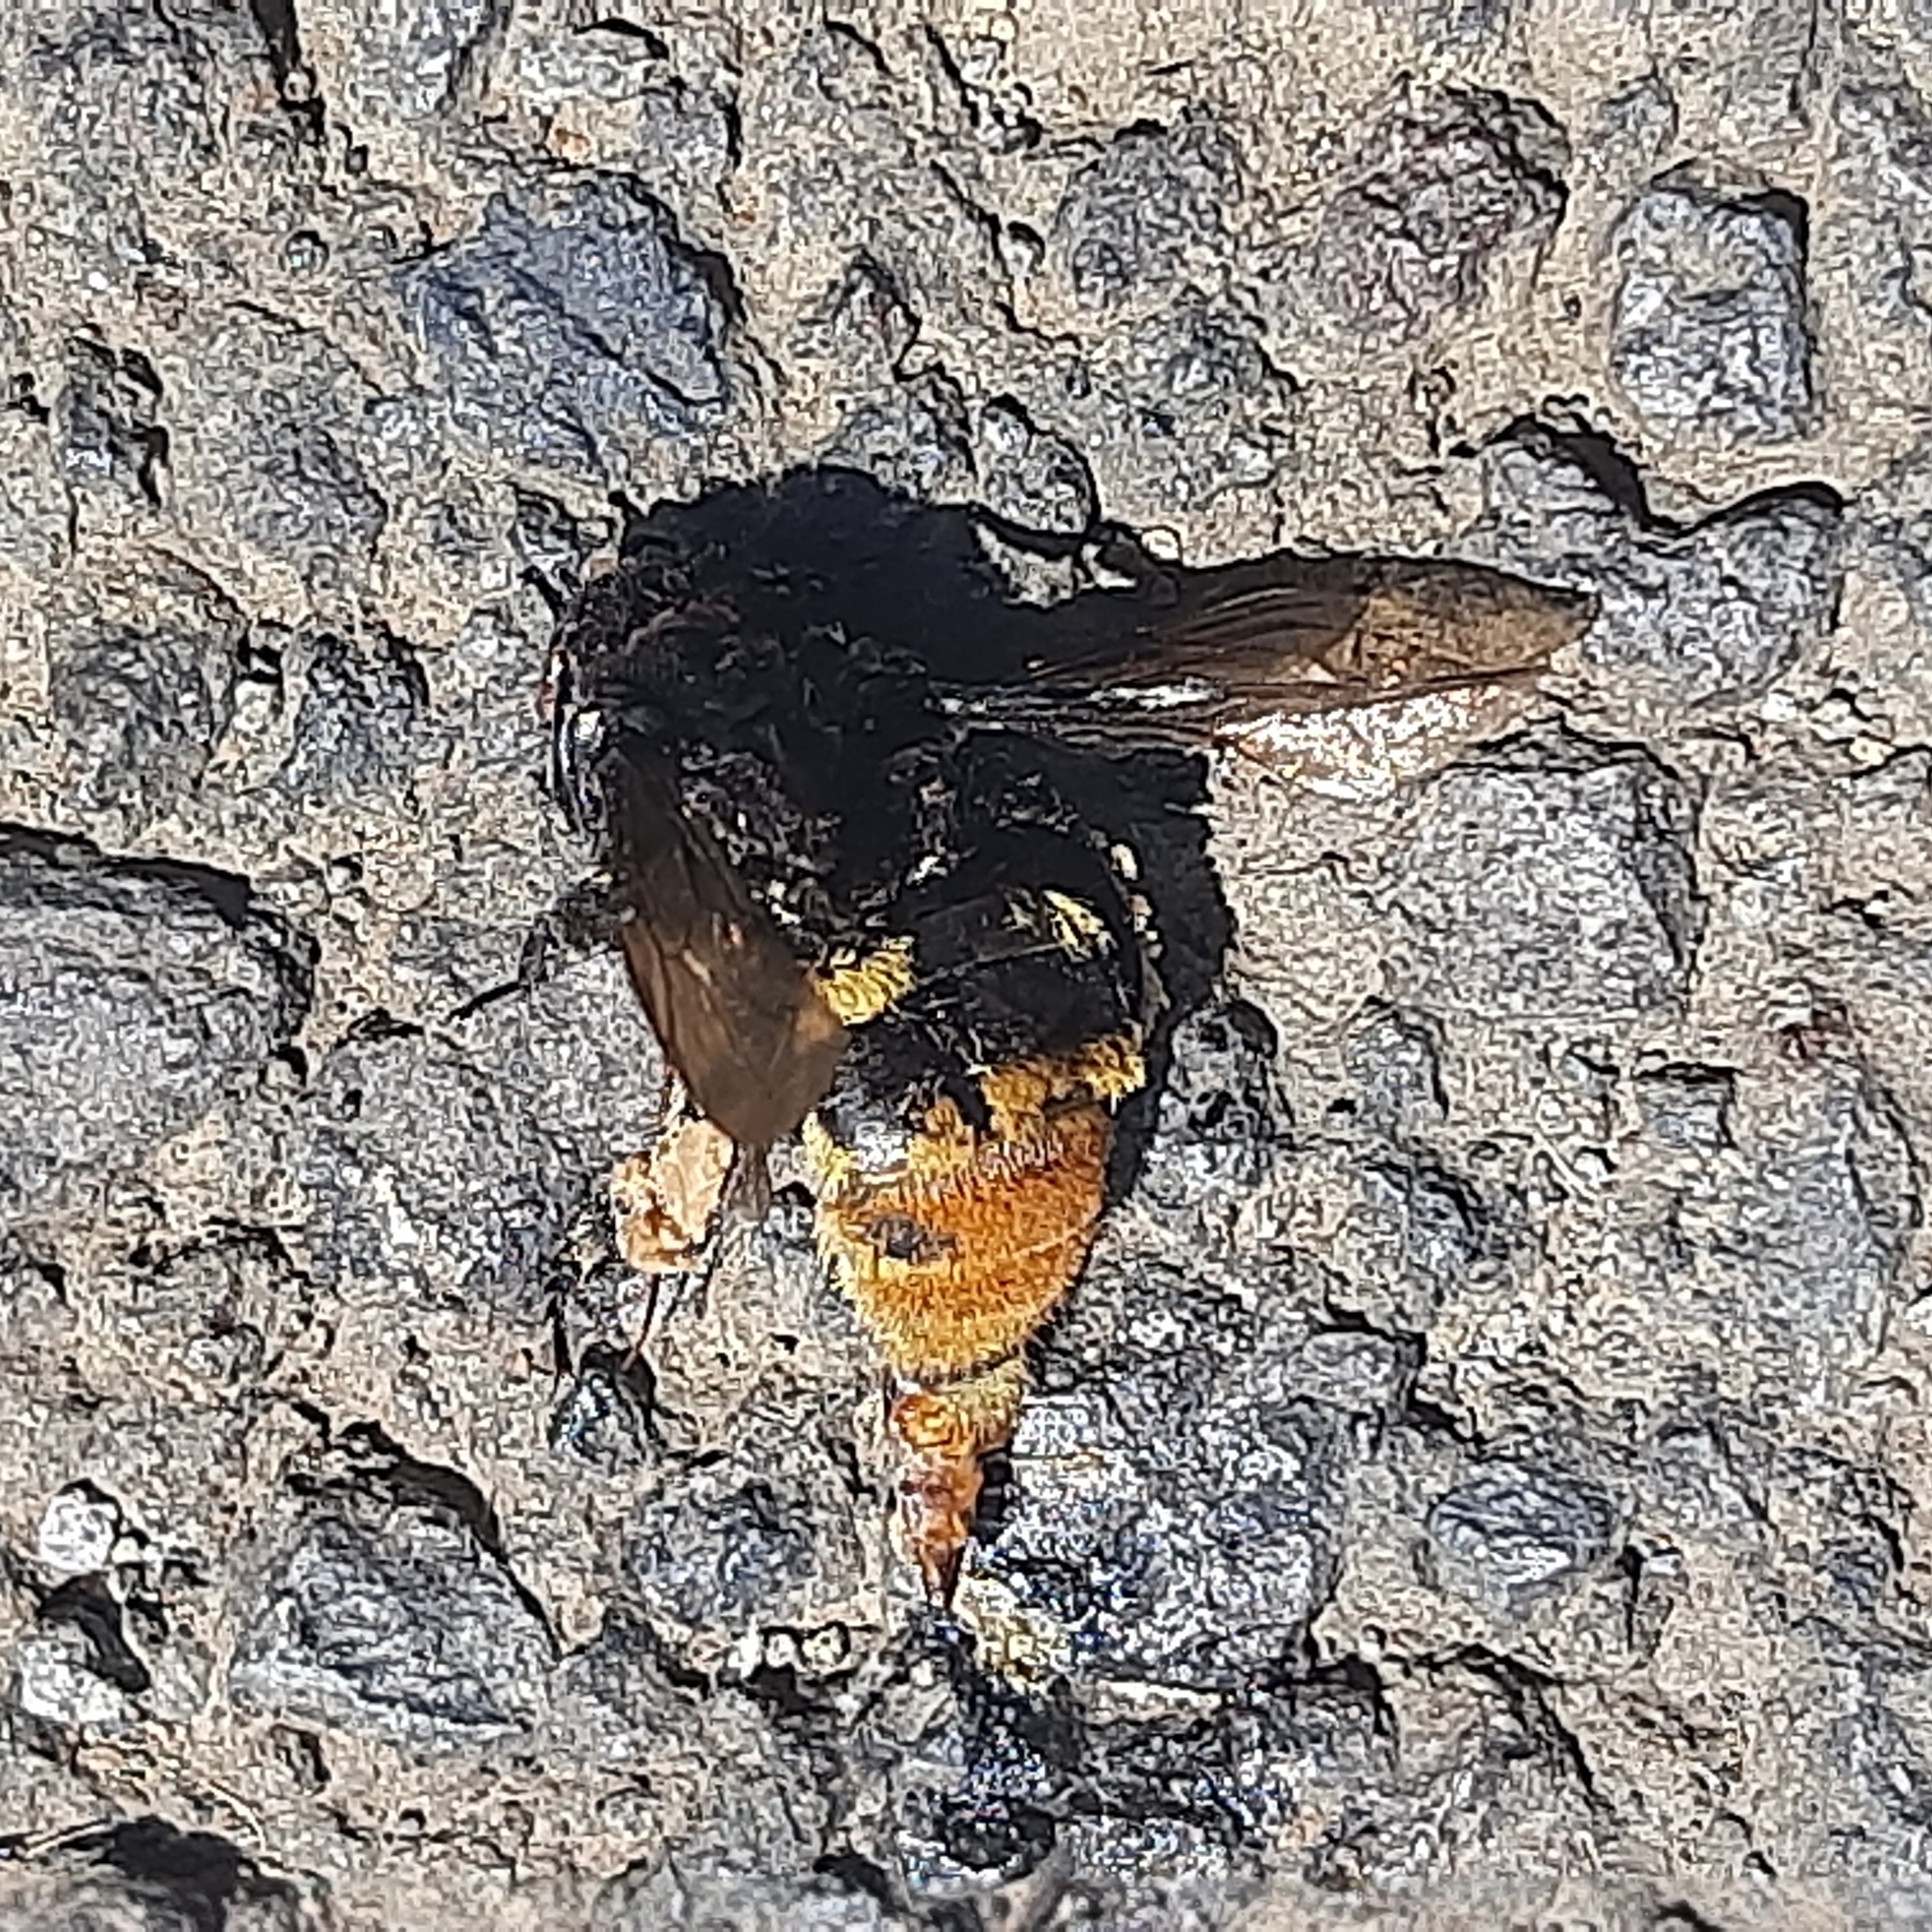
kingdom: Animalia
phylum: Arthropoda
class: Insecta
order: Hymenoptera
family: Apidae
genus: Eulaema
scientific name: Eulaema cingulata
